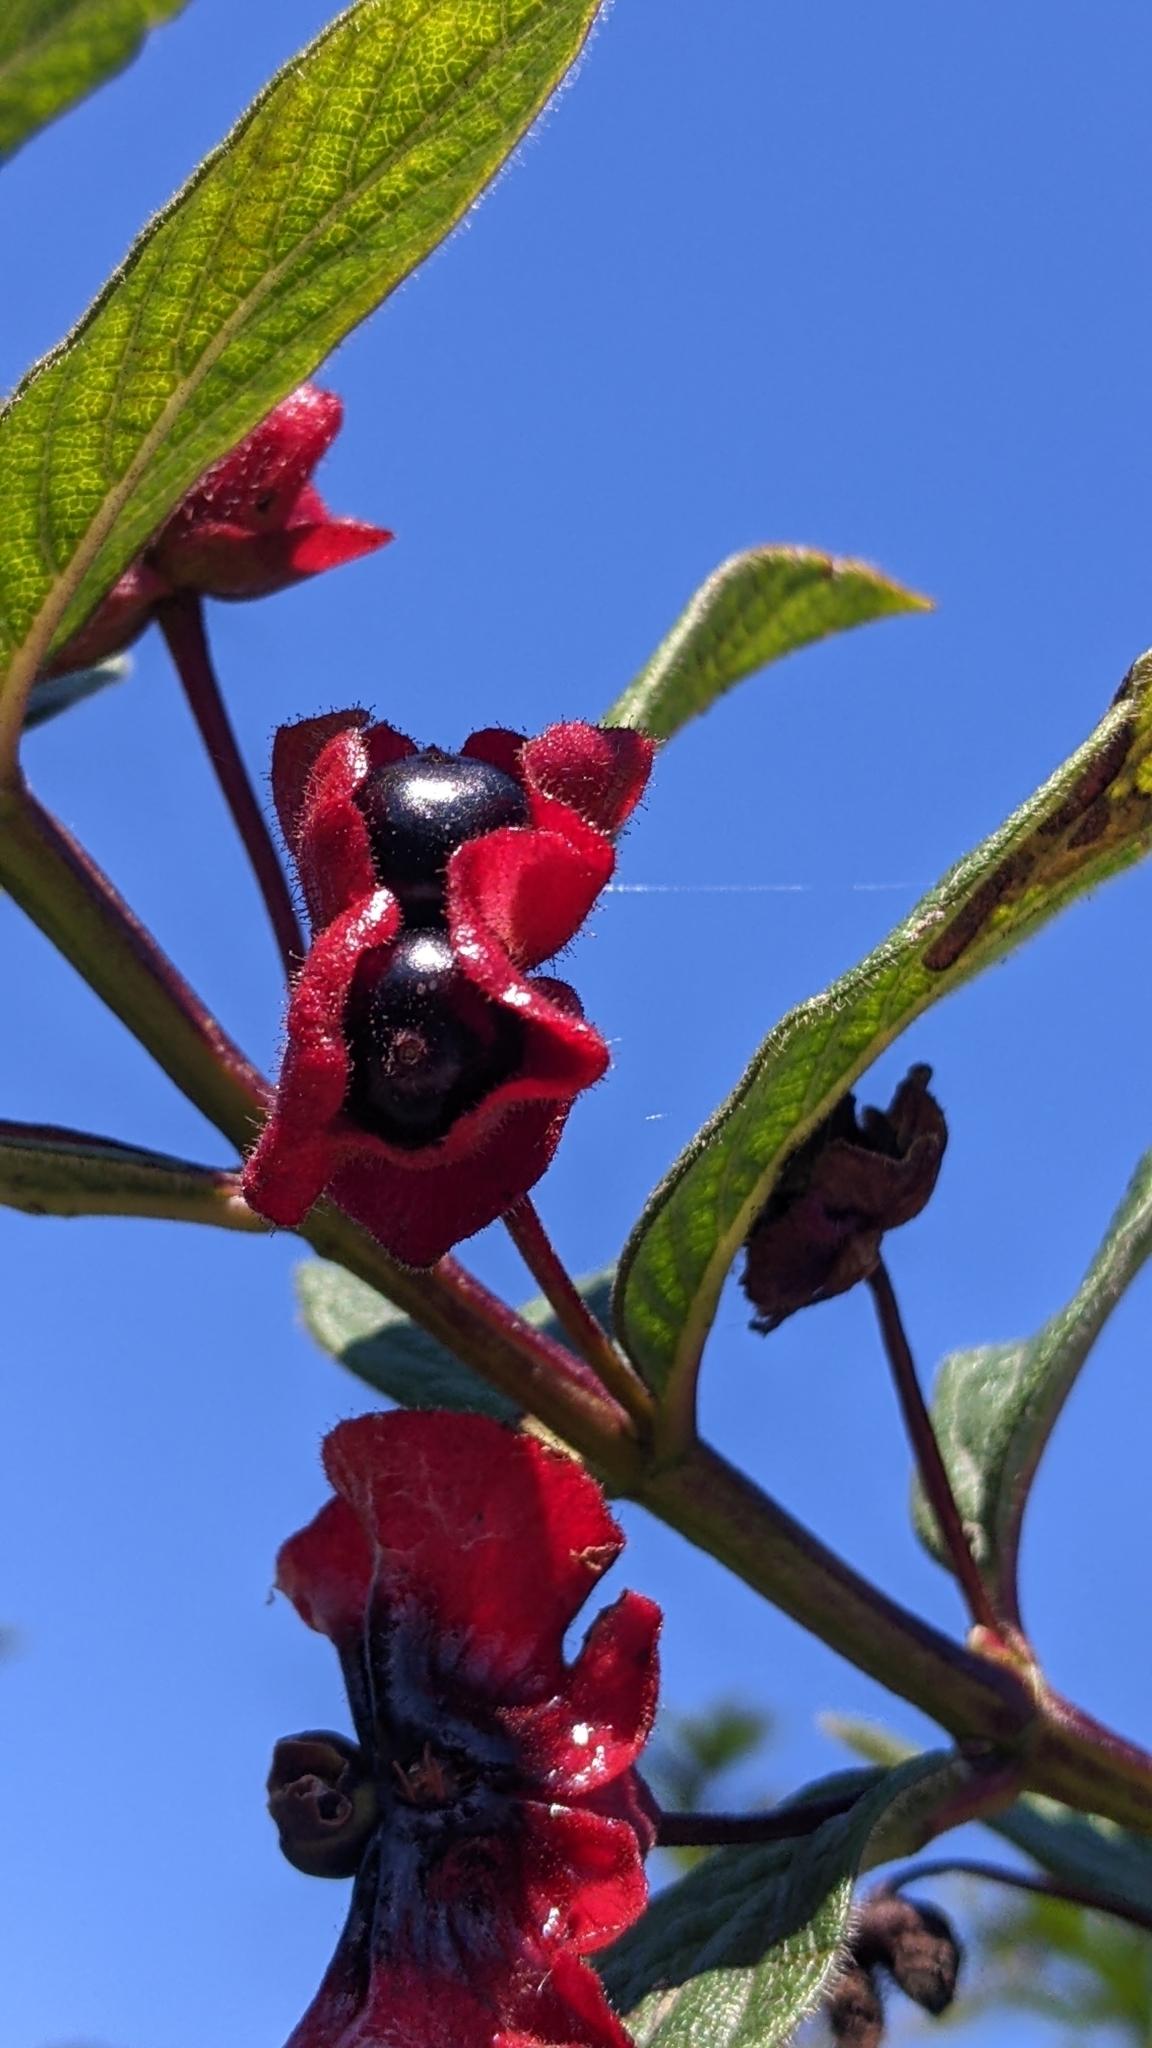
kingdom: Plantae
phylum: Tracheophyta
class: Magnoliopsida
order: Dipsacales
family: Caprifoliaceae
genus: Lonicera
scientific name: Lonicera involucrata
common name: Californian honeysuckle
